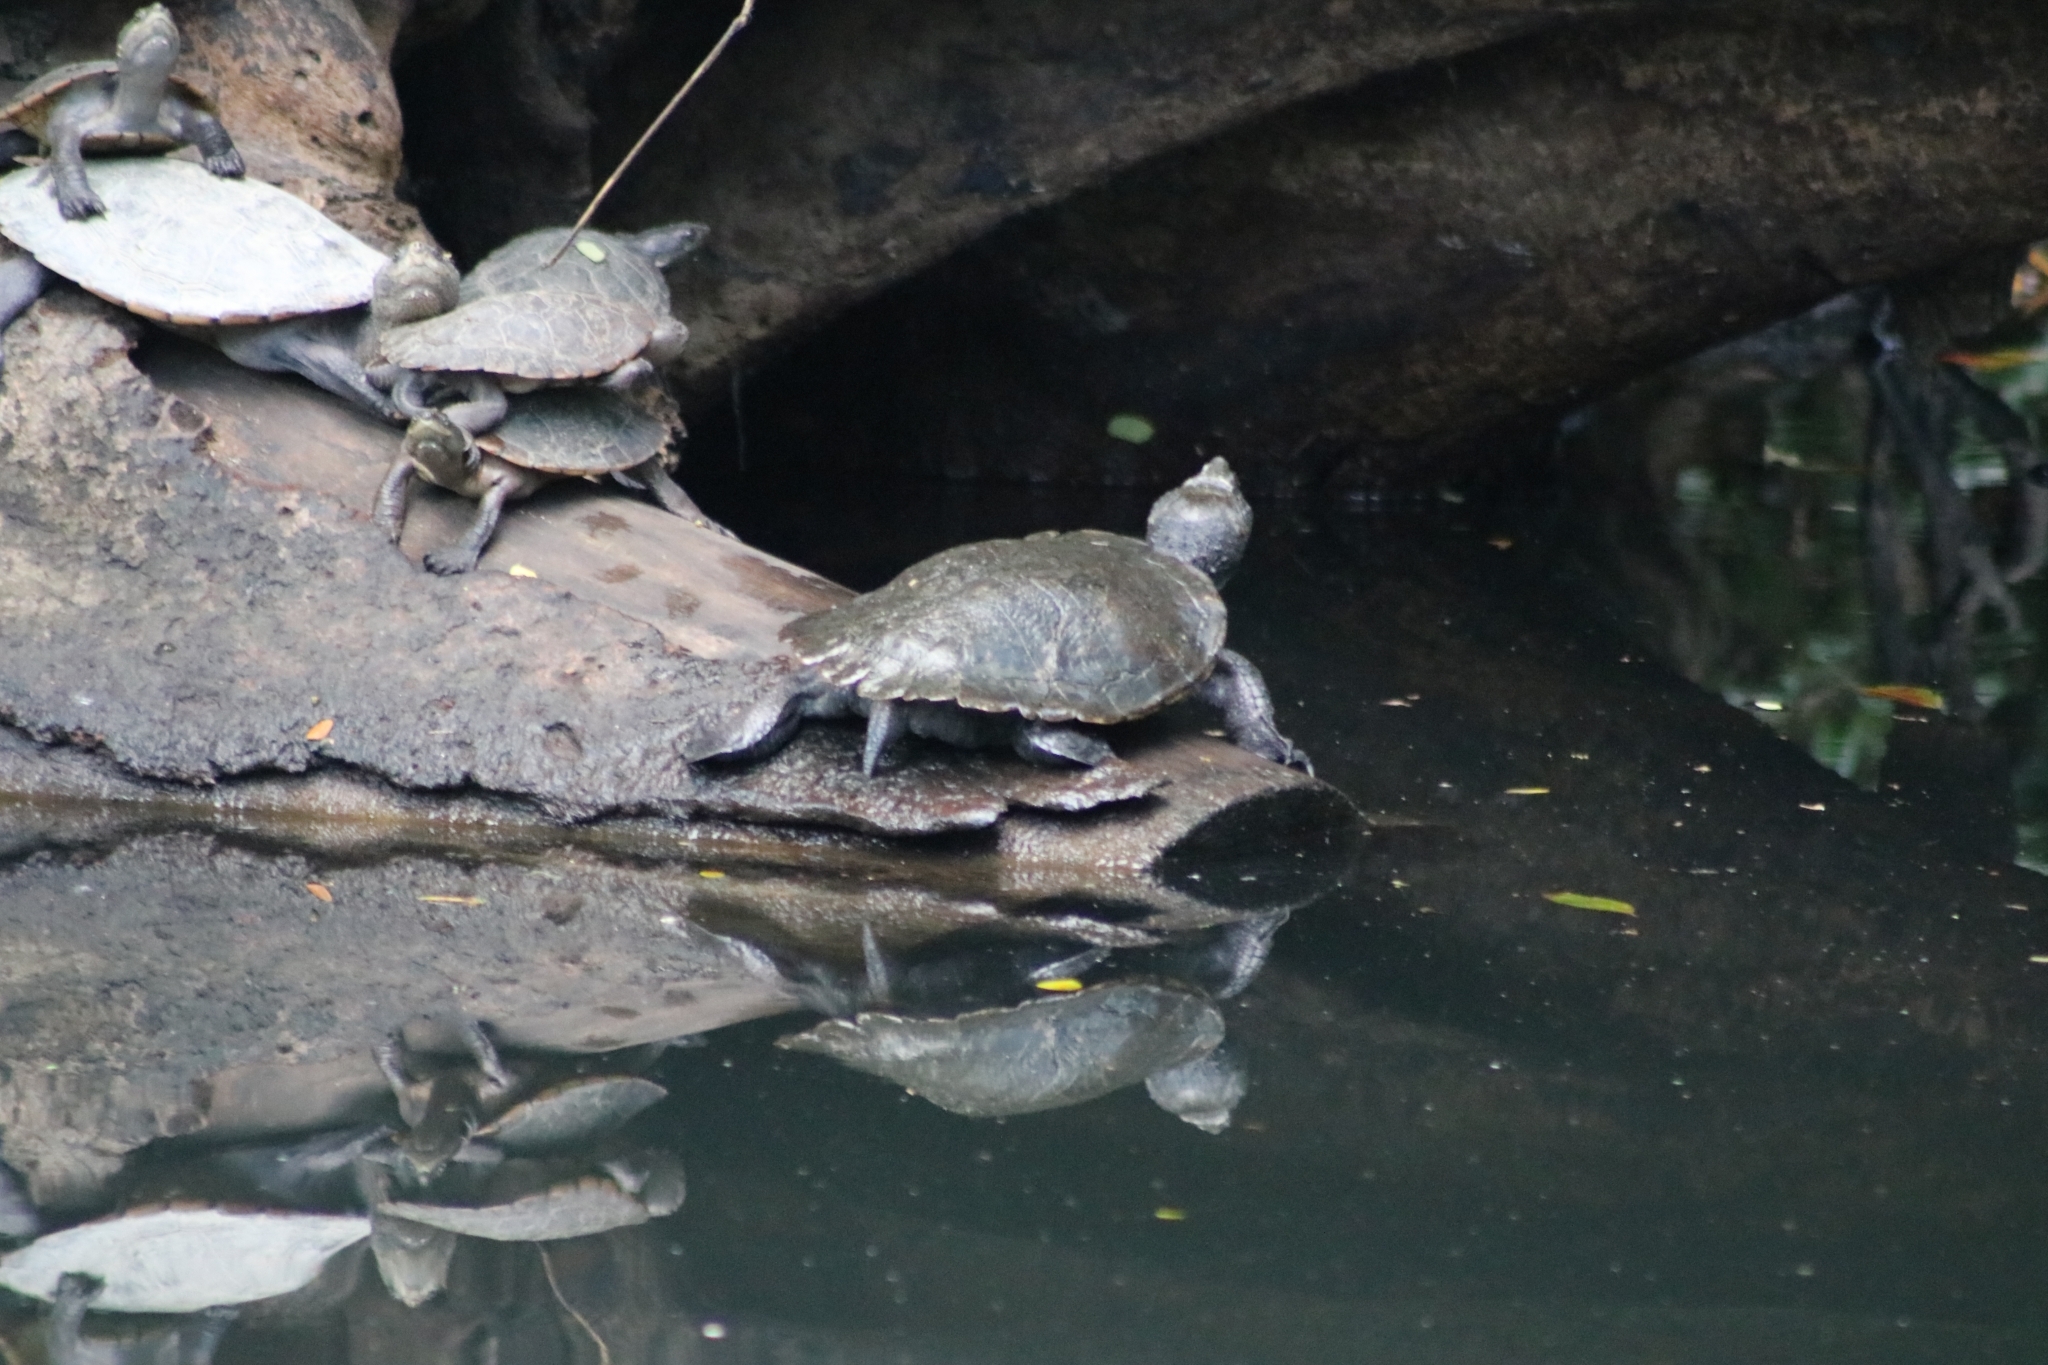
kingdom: Animalia
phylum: Chordata
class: Testudines
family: Chelidae
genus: Myuchelys
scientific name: Myuchelys latisternum
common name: Serrated snapping turtle
